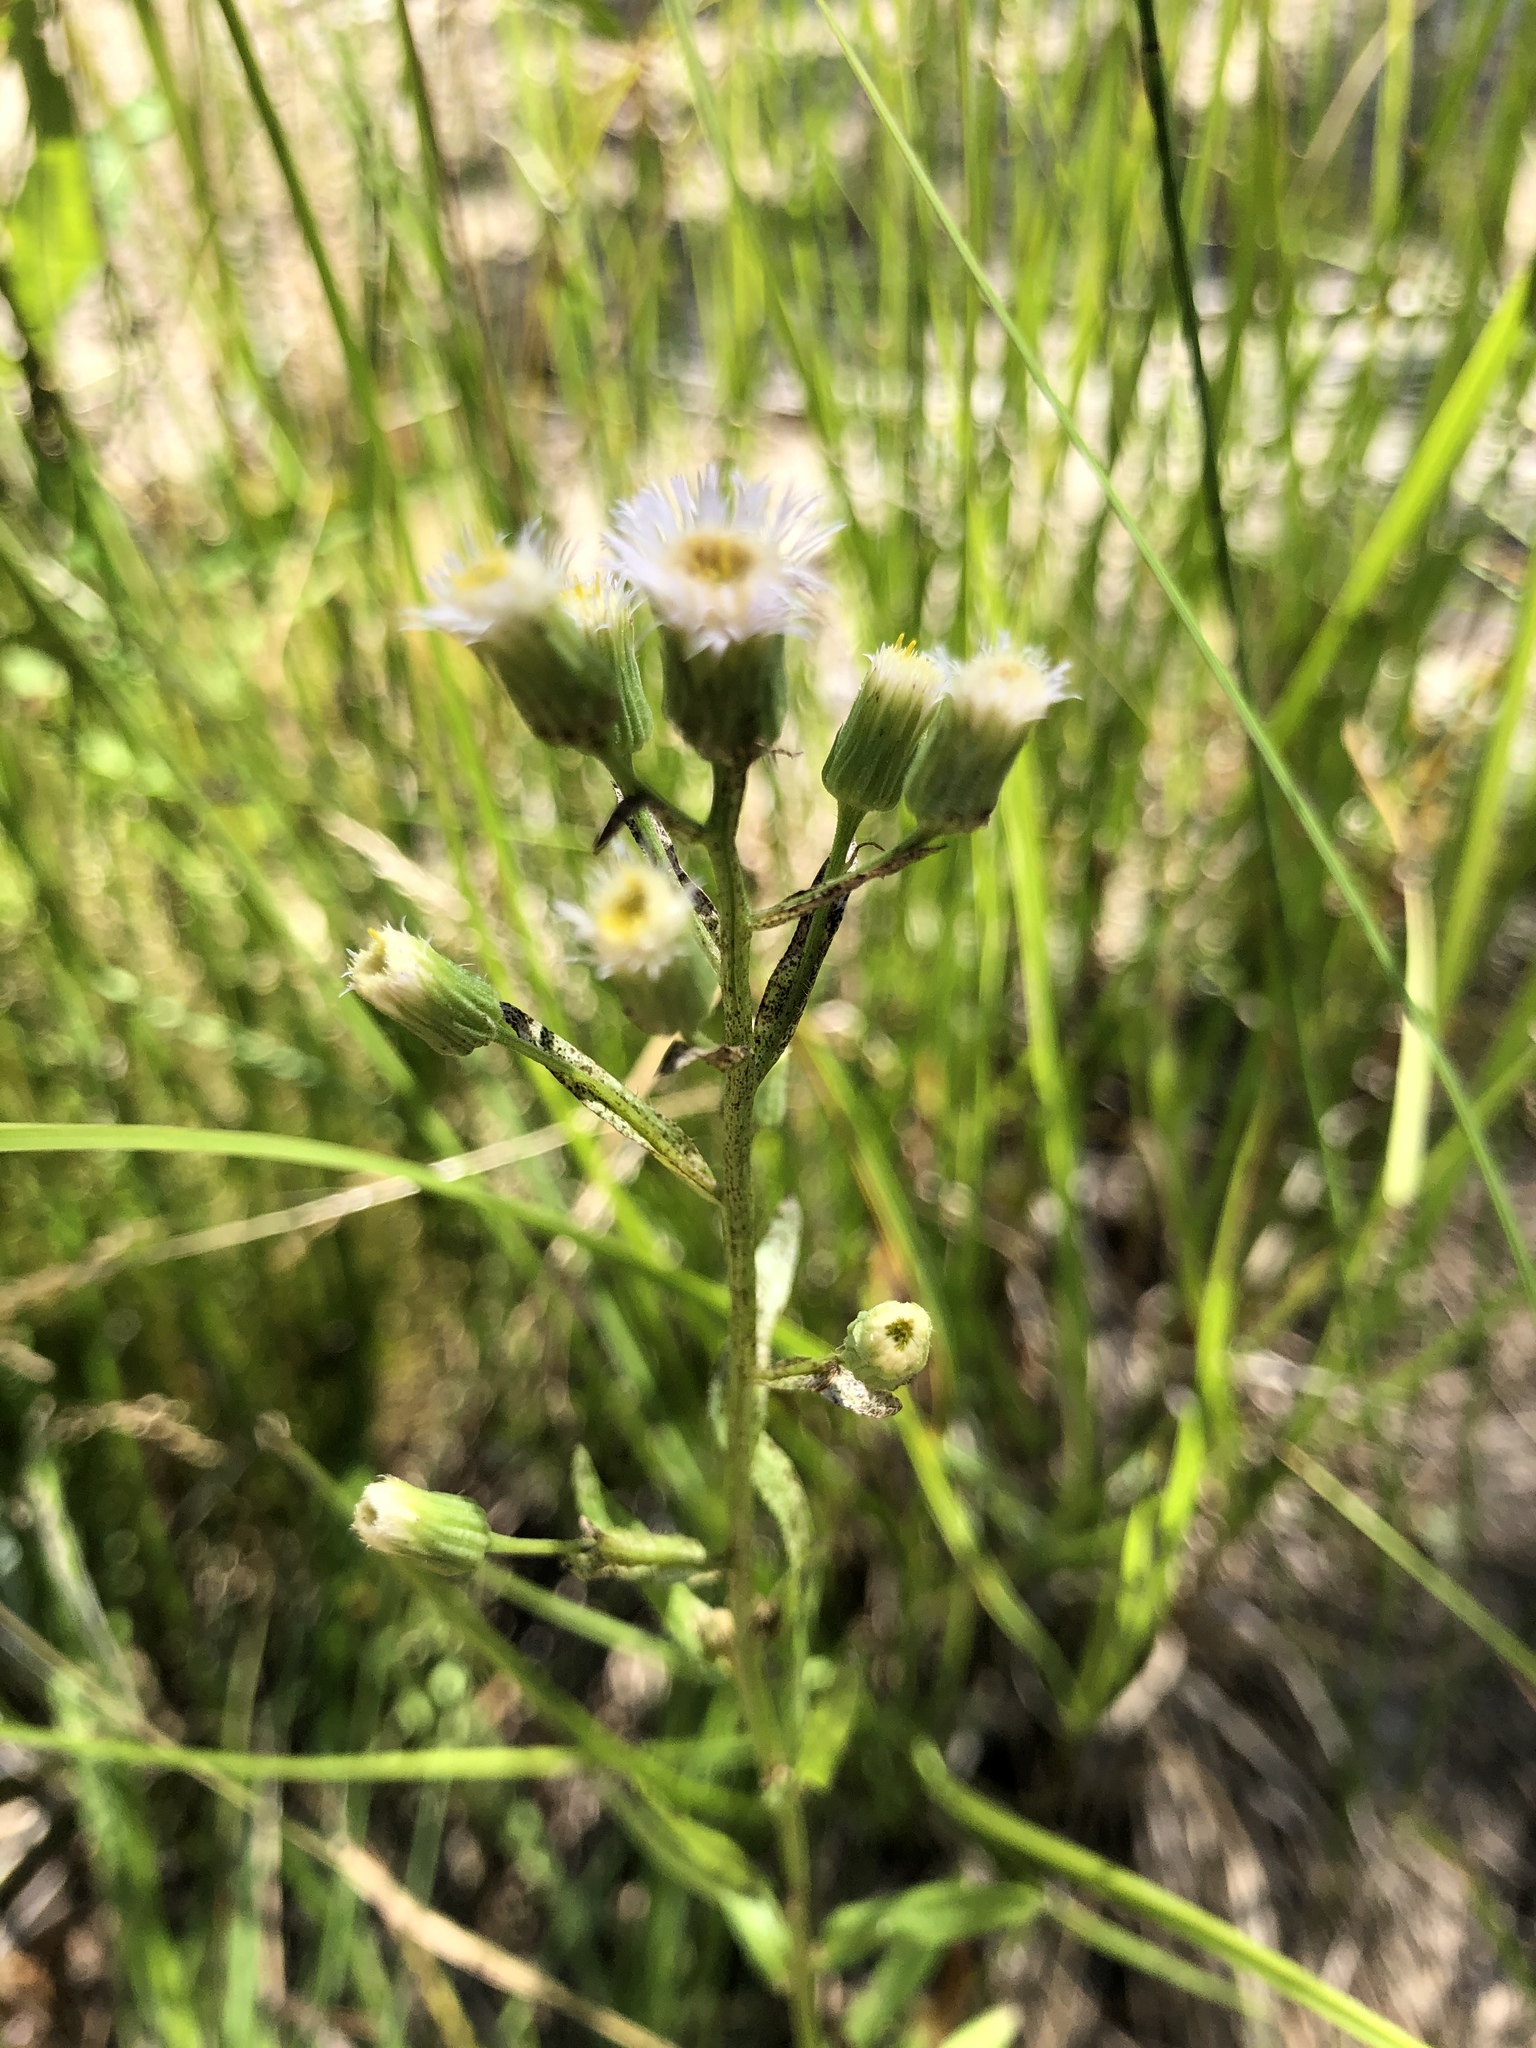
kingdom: Plantae
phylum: Tracheophyta
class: Magnoliopsida
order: Asterales
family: Asteraceae
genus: Erigeron
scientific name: Erigeron acris
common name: Blue fleabane
